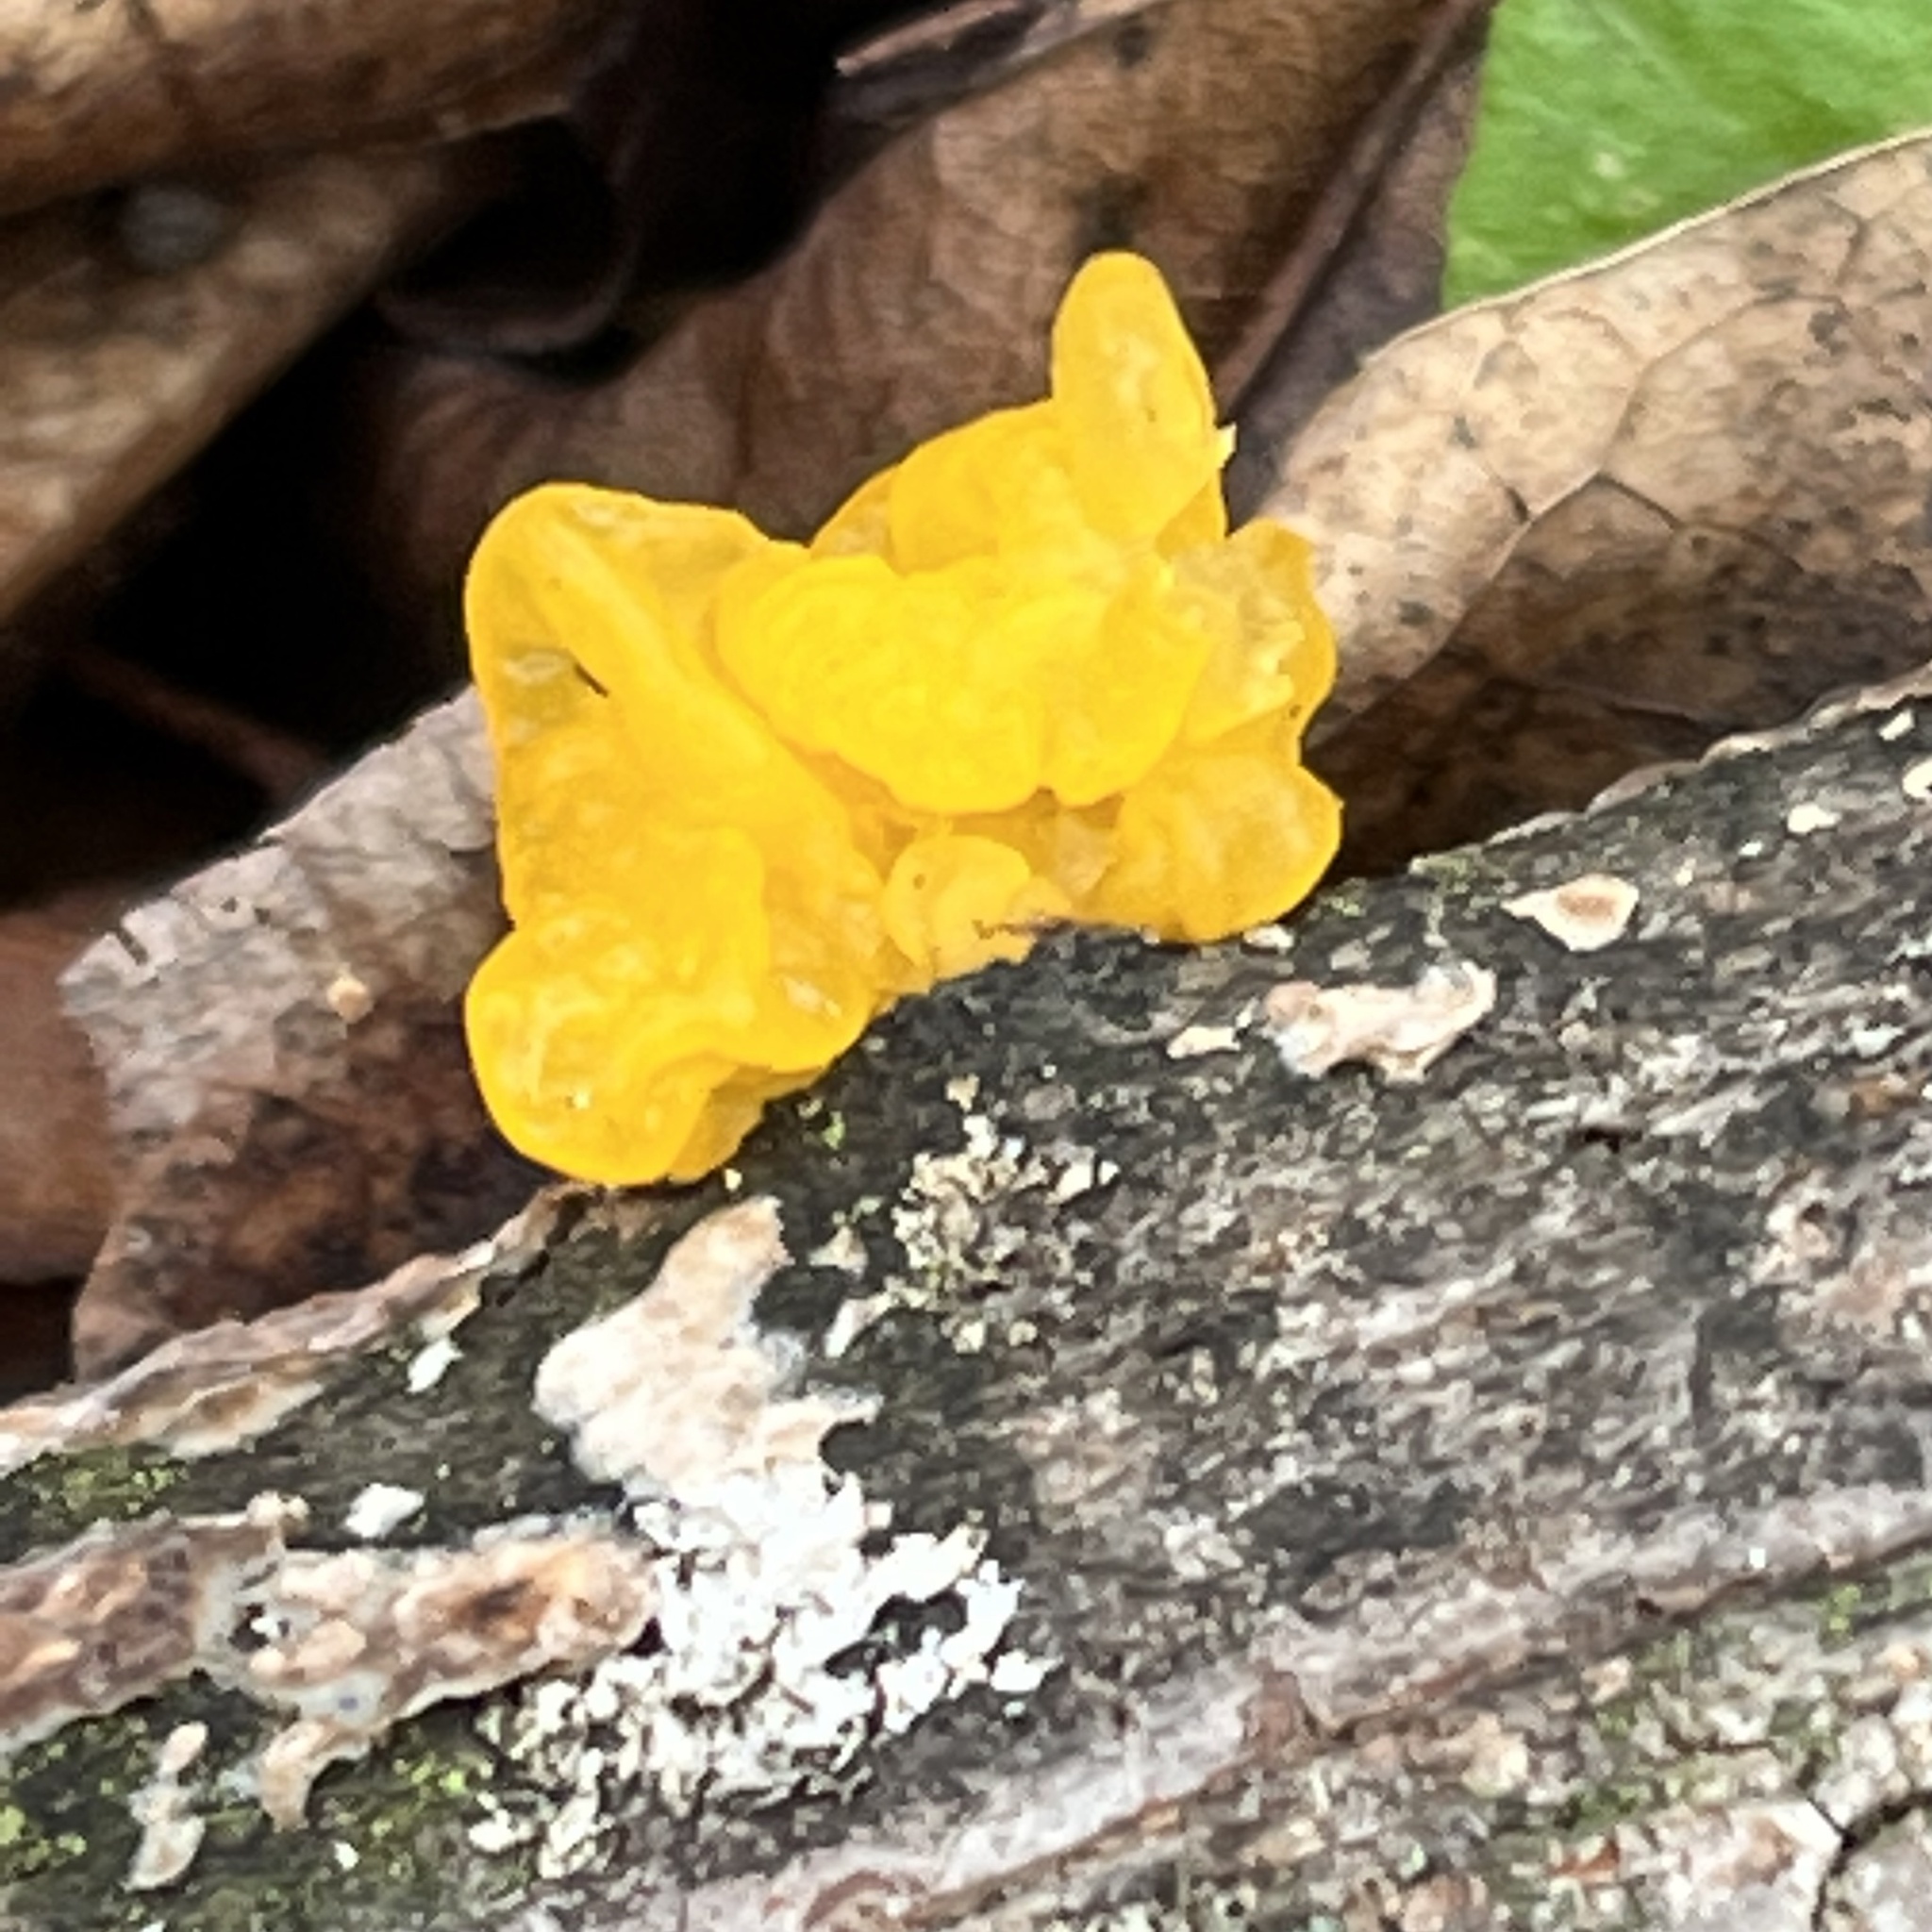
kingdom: Fungi
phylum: Basidiomycota
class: Tremellomycetes
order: Tremellales
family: Tremellaceae
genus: Tremella
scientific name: Tremella mesenterica
